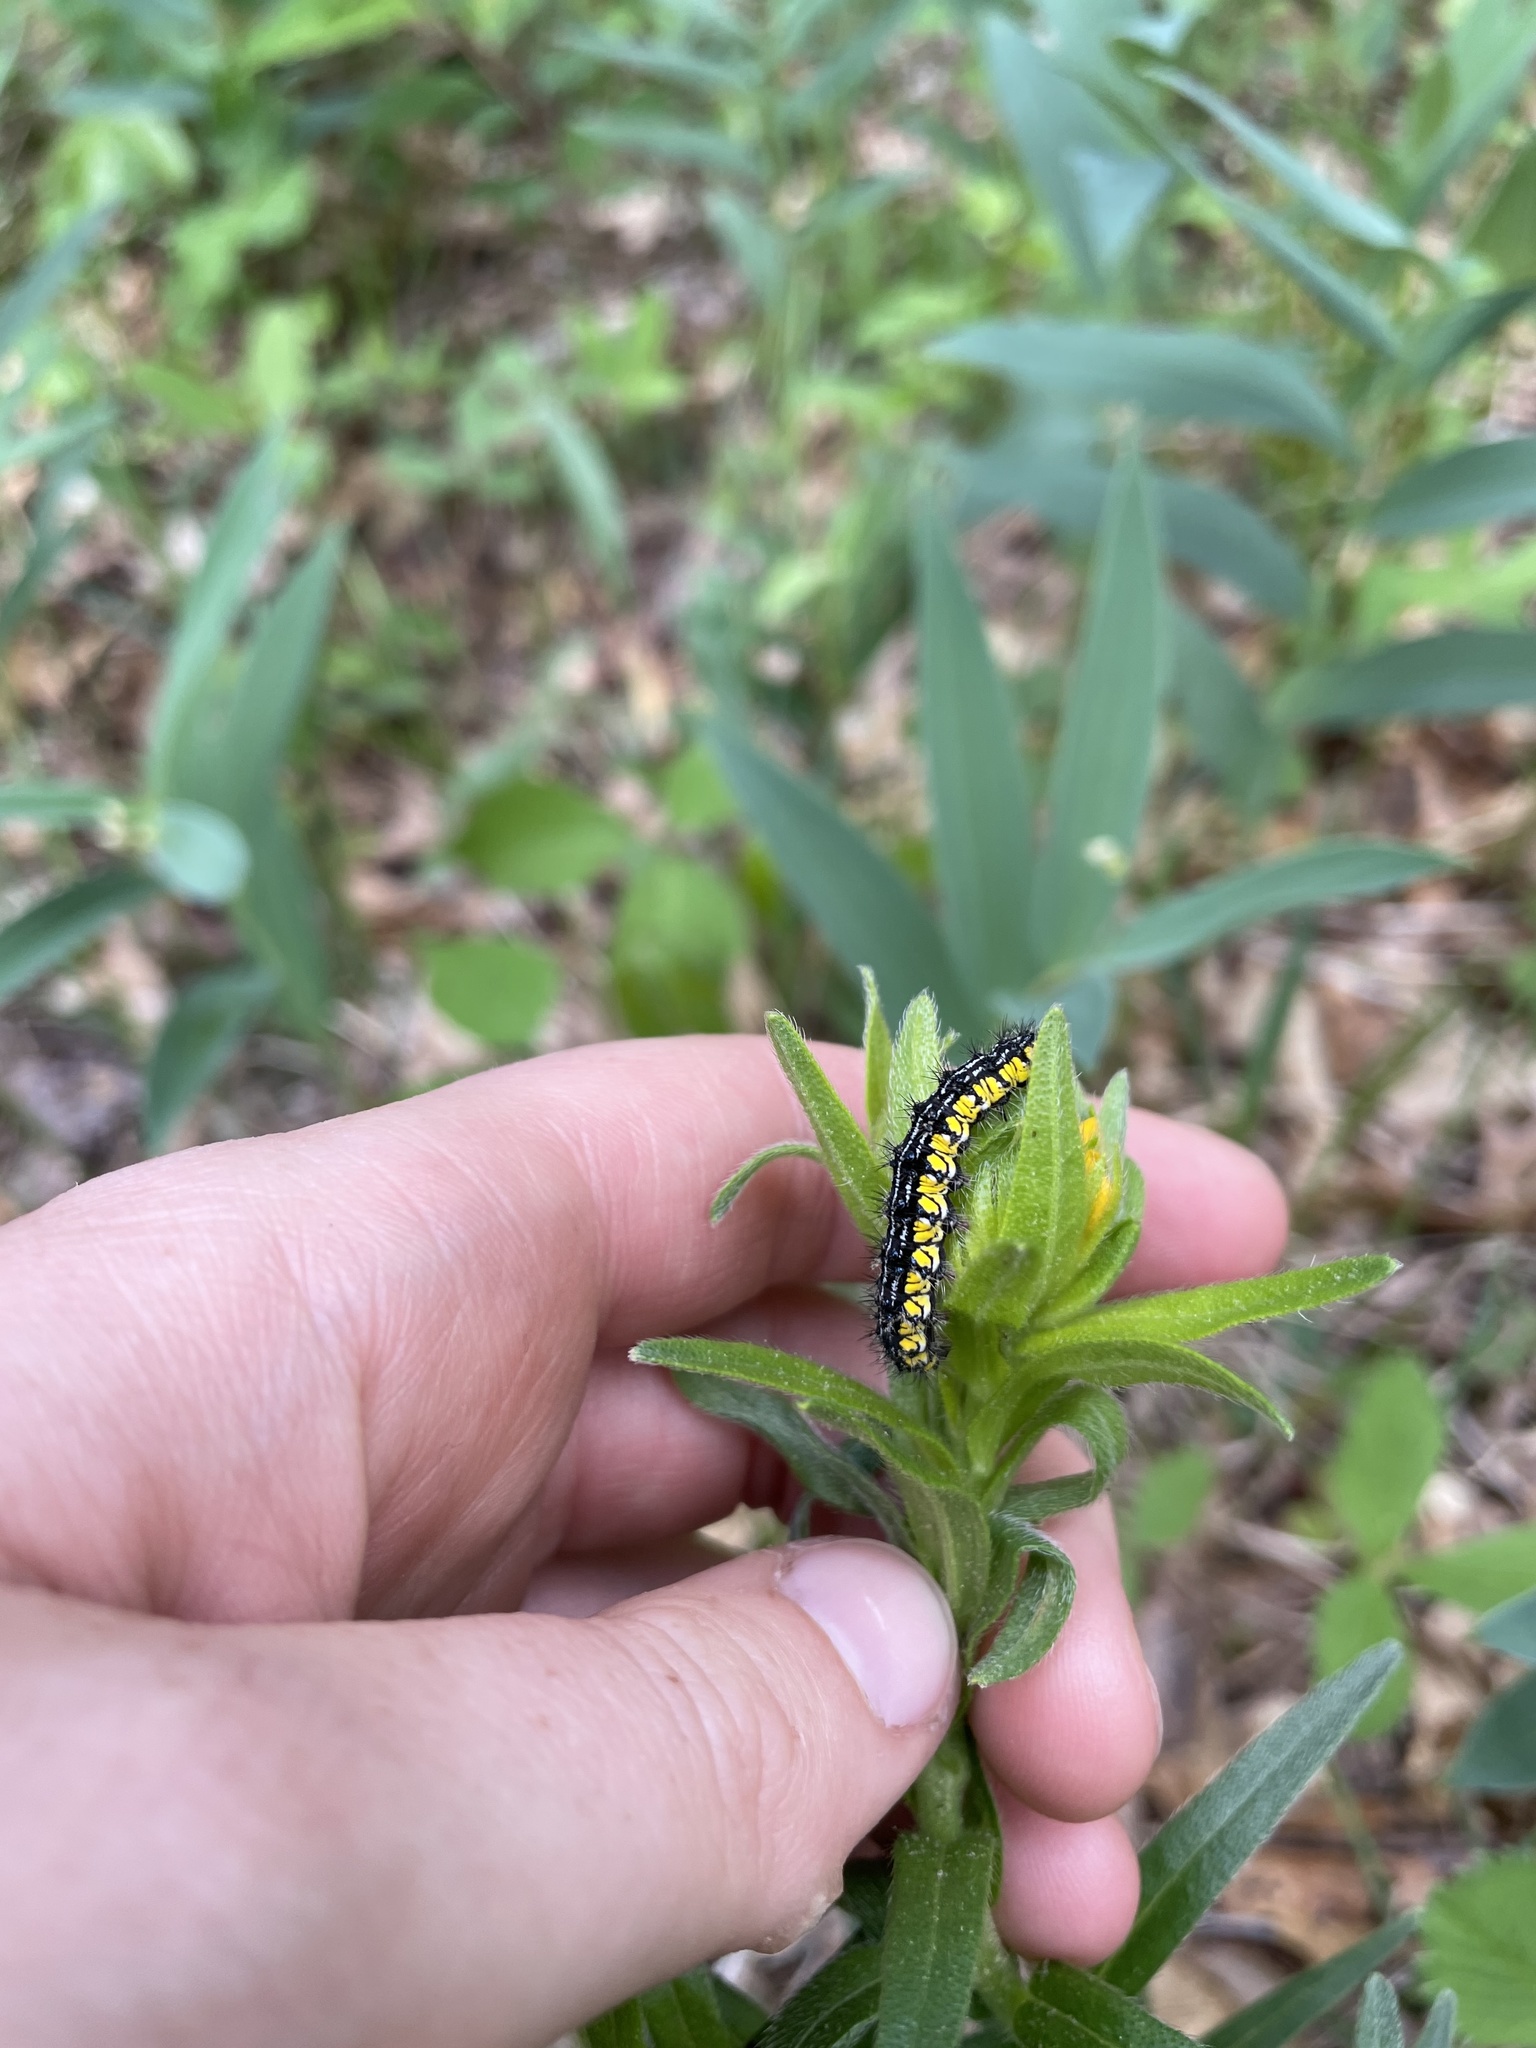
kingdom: Animalia
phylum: Arthropoda
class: Insecta
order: Lepidoptera
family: Erebidae
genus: Haploa
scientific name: Haploa contigua
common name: Neighbor moth
